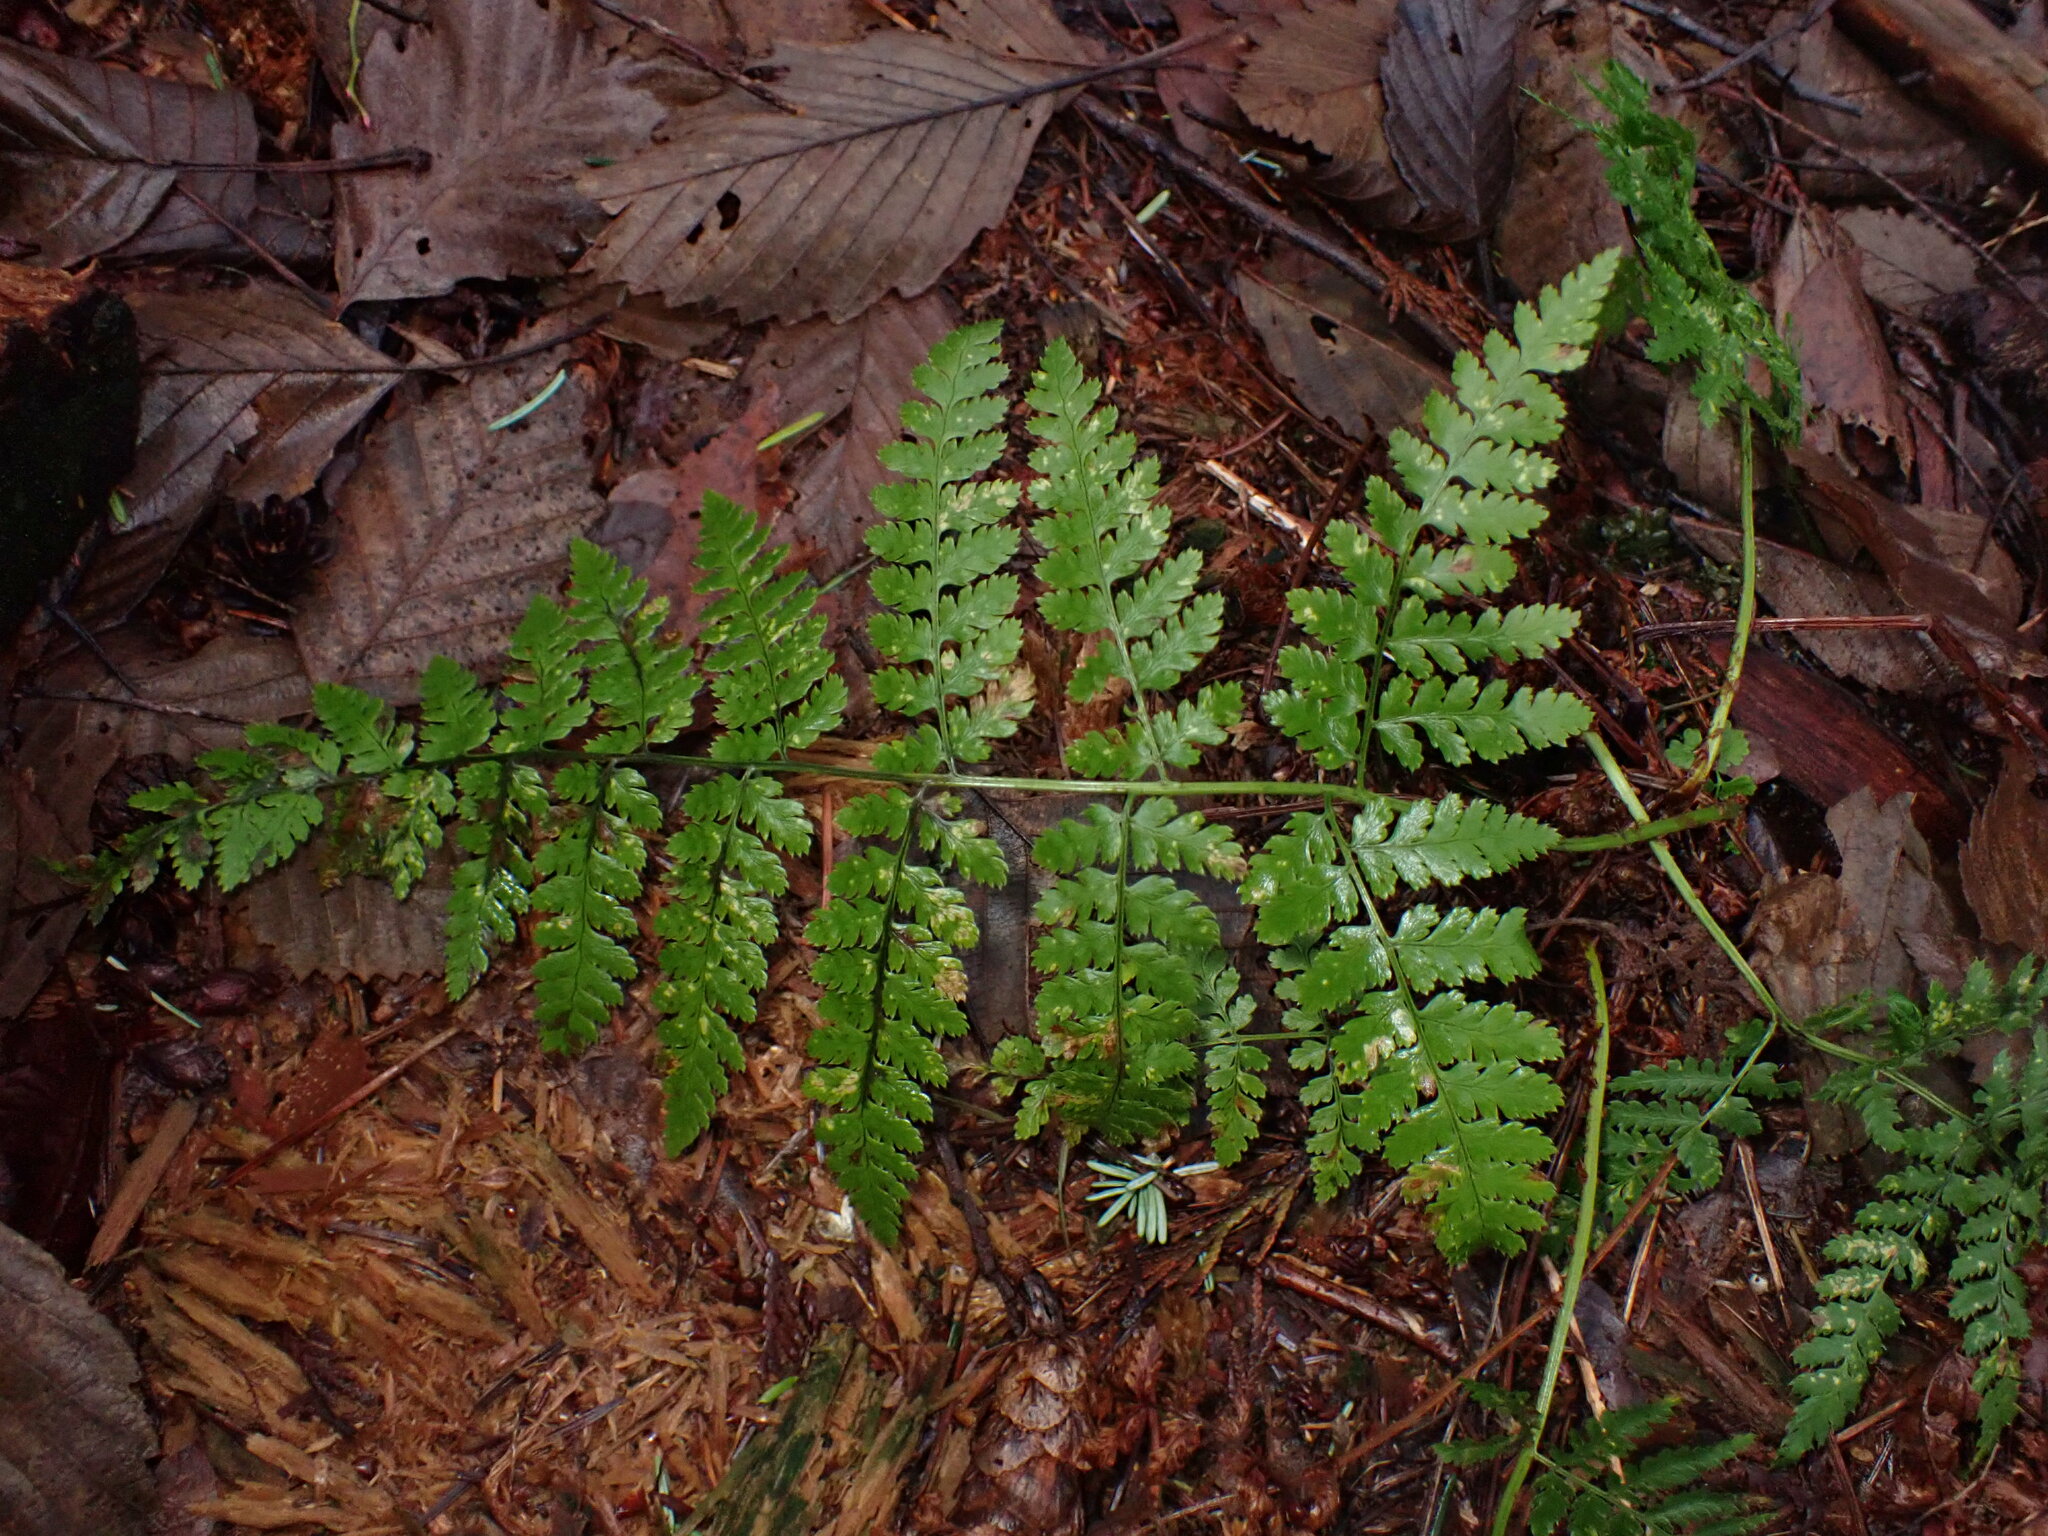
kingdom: Plantae
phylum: Tracheophyta
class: Polypodiopsida
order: Polypodiales
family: Dryopteridaceae
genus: Dryopteris
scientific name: Dryopteris expansa
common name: Northern buckler fern
